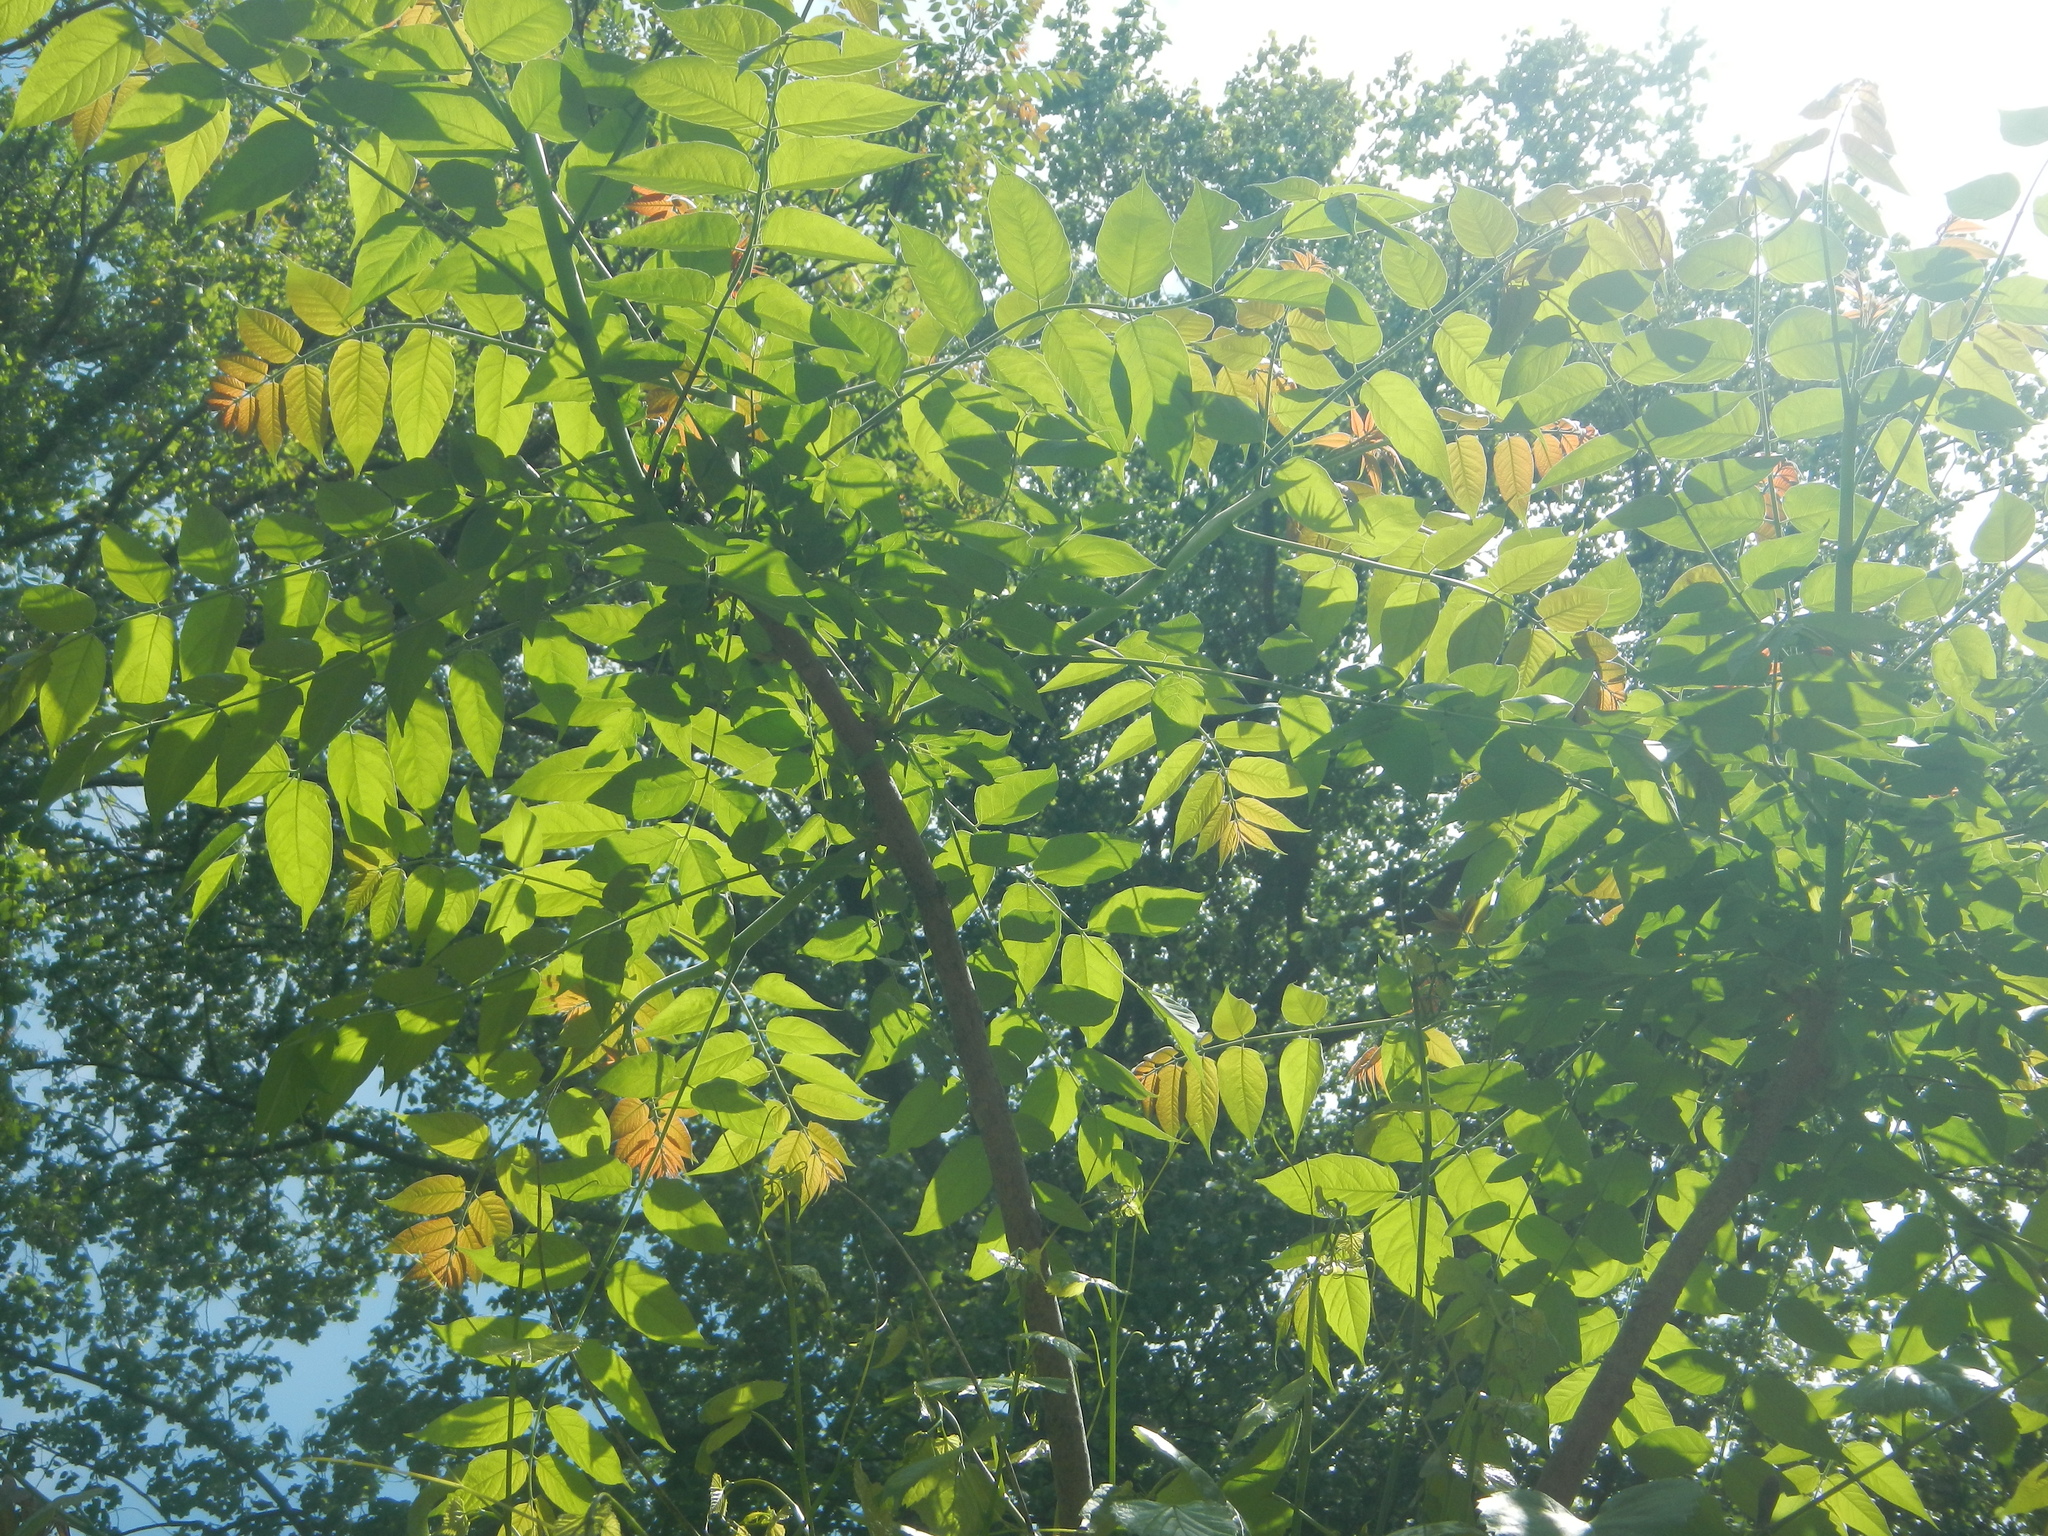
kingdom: Plantae
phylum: Tracheophyta
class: Magnoliopsida
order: Sapindales
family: Simaroubaceae
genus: Ailanthus
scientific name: Ailanthus altissima
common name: Tree-of-heaven
